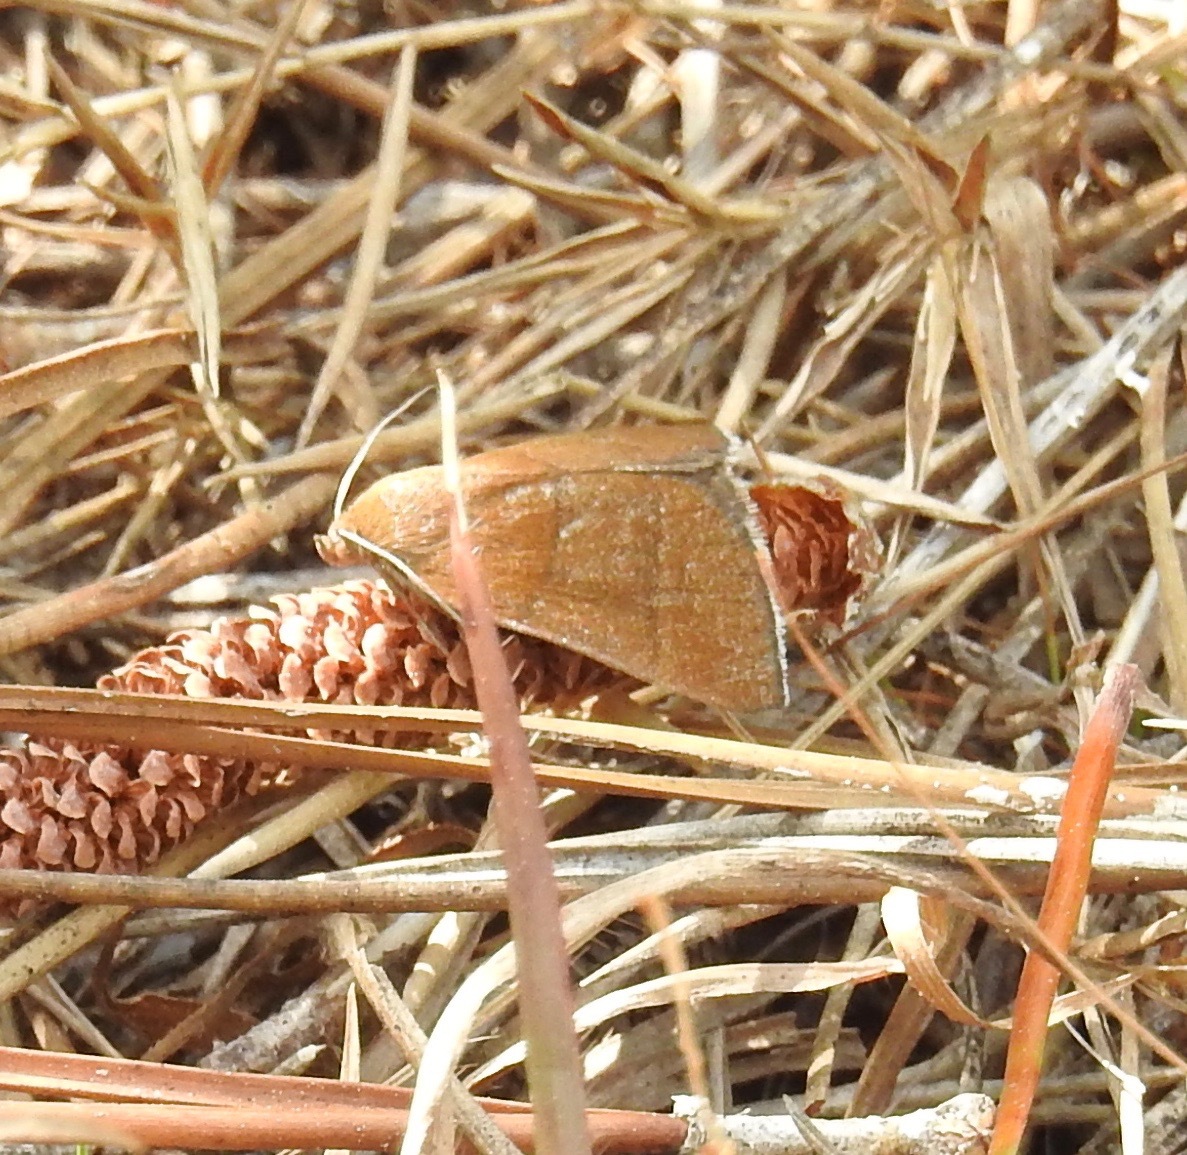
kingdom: Animalia
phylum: Arthropoda
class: Insecta
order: Lepidoptera
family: Erebidae
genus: Argyrostrotis
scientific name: Argyrostrotis quadrifilaris
